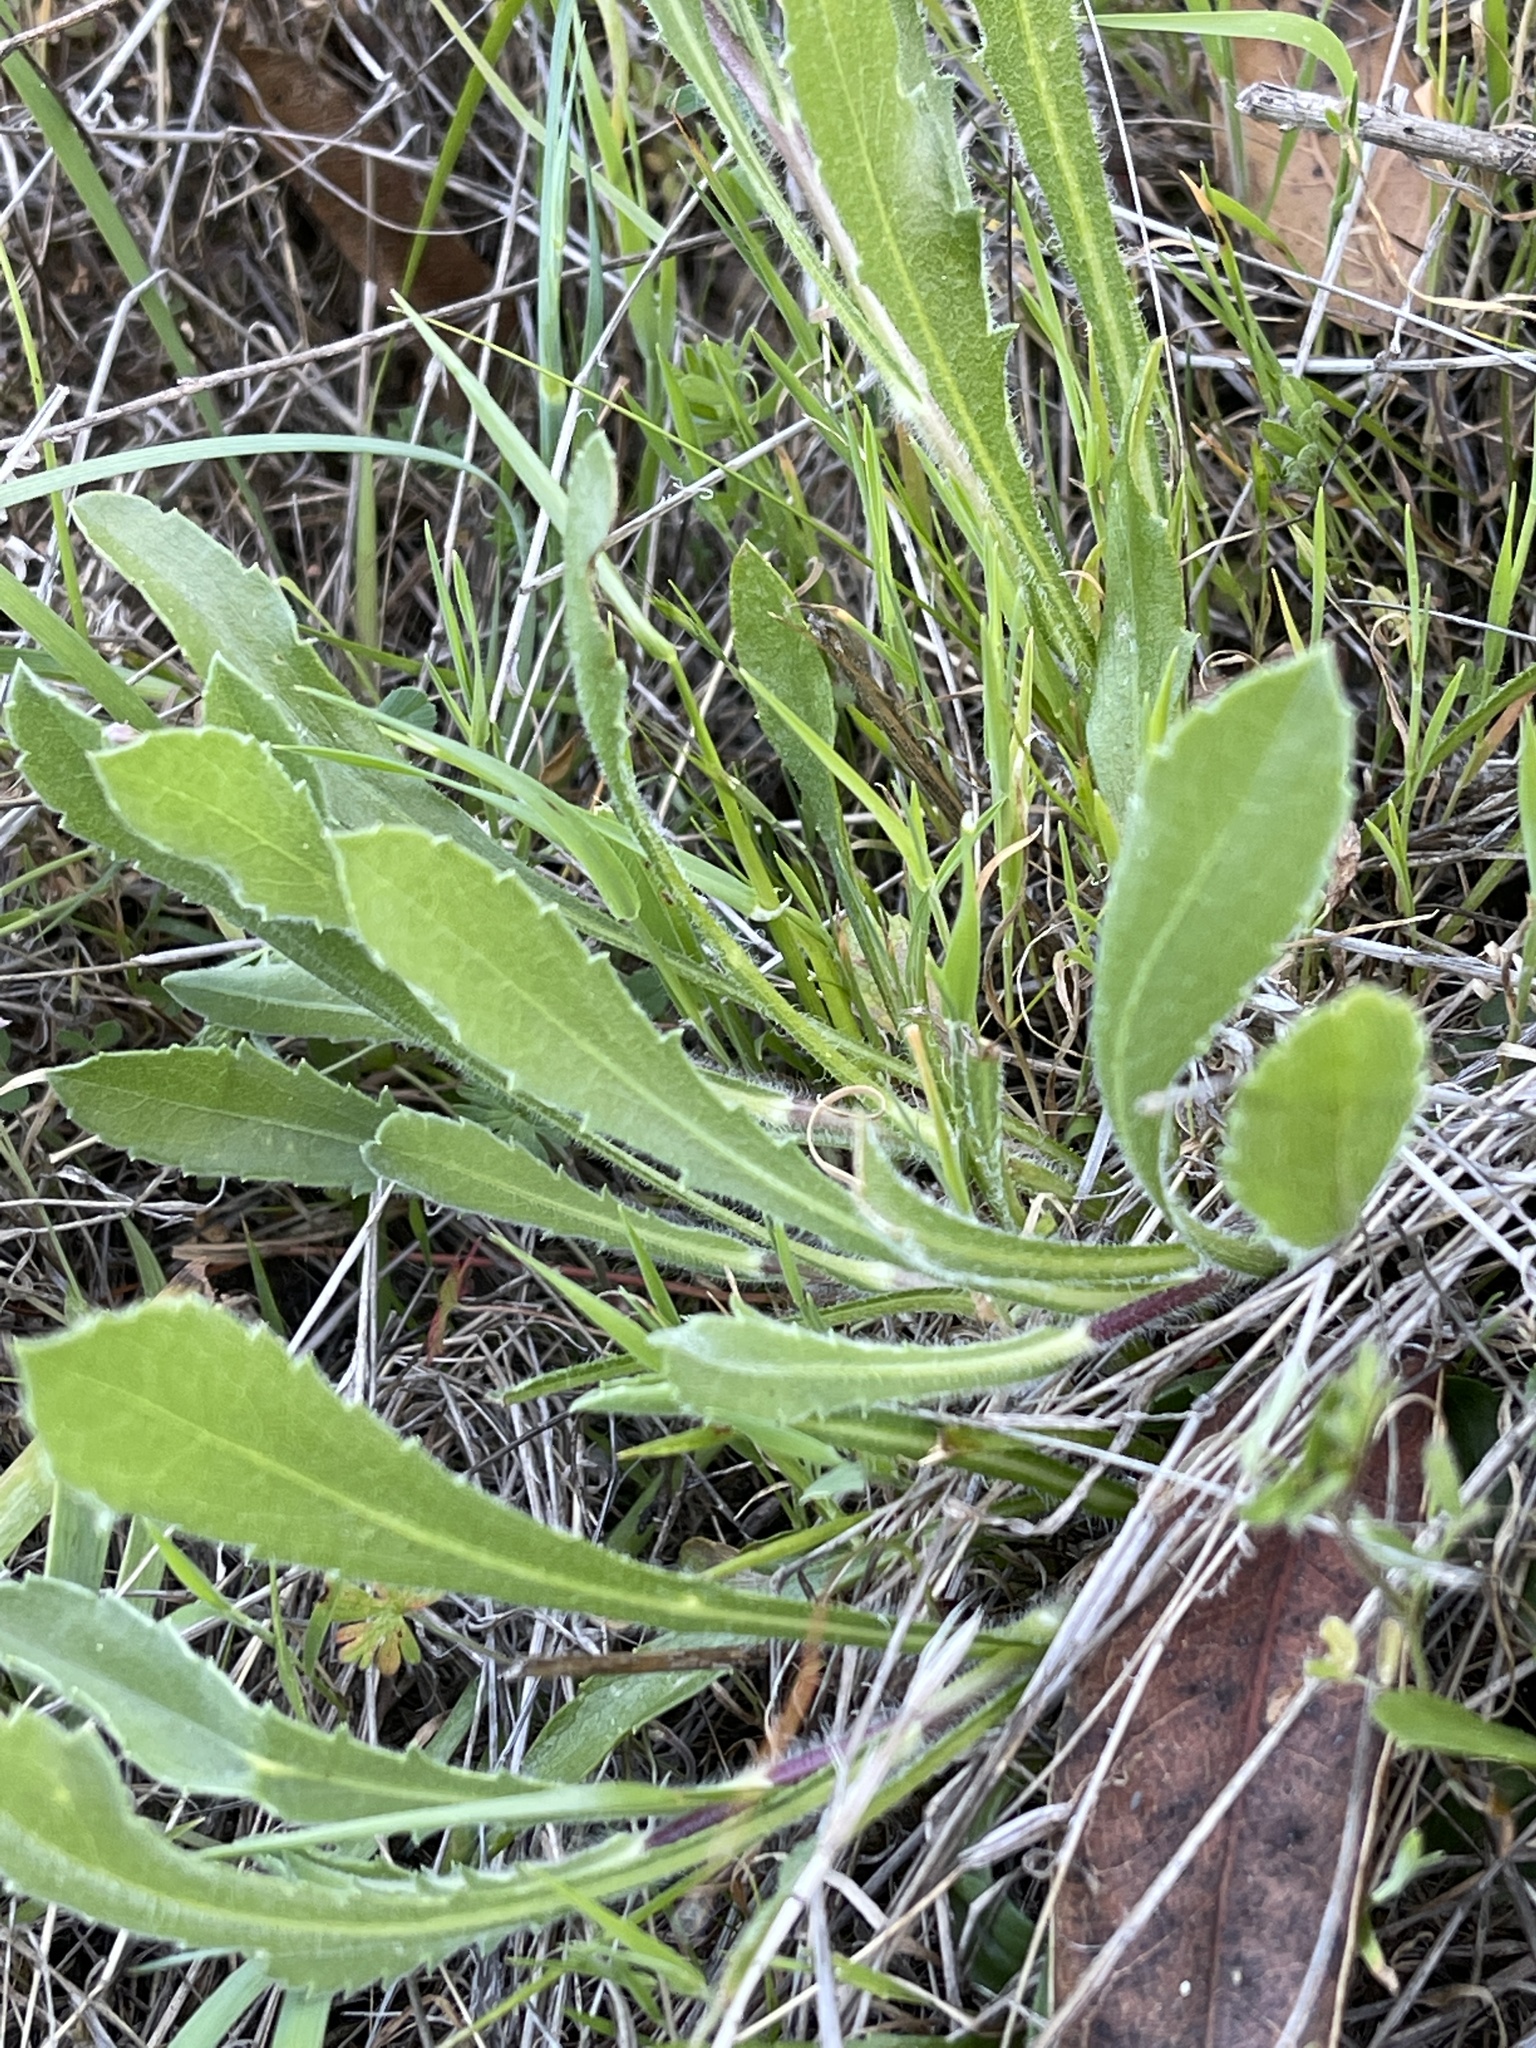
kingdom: Plantae
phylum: Tracheophyta
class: Magnoliopsida
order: Asterales
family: Asteraceae
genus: Grindelia
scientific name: Grindelia hirsutula
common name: Hairy gumweed
